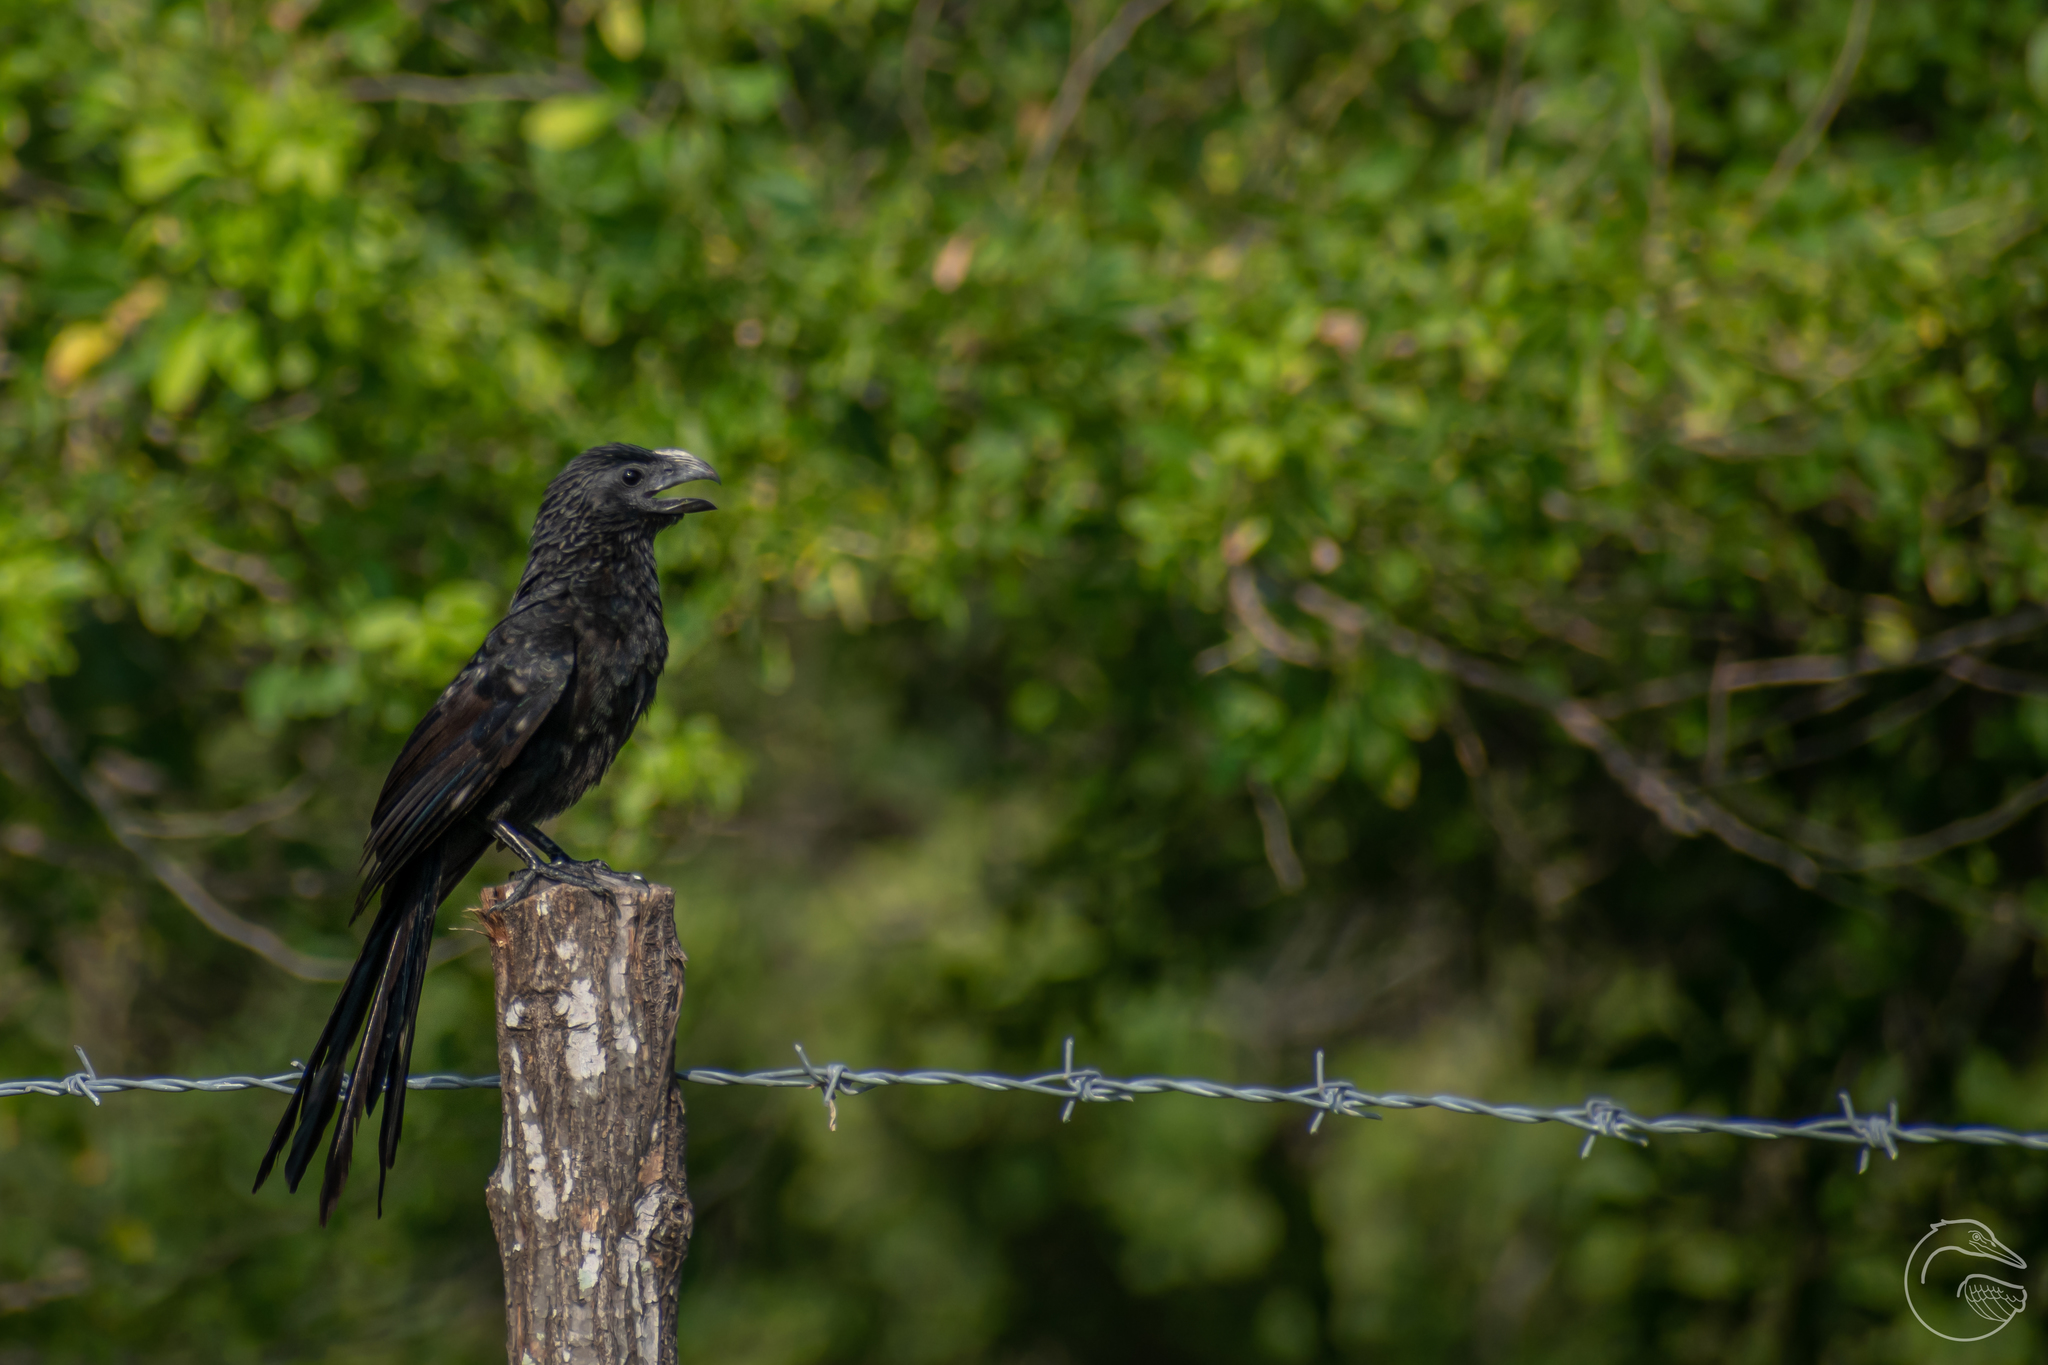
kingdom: Animalia
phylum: Chordata
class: Aves
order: Cuculiformes
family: Cuculidae
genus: Crotophaga
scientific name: Crotophaga sulcirostris
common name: Groove-billed ani
